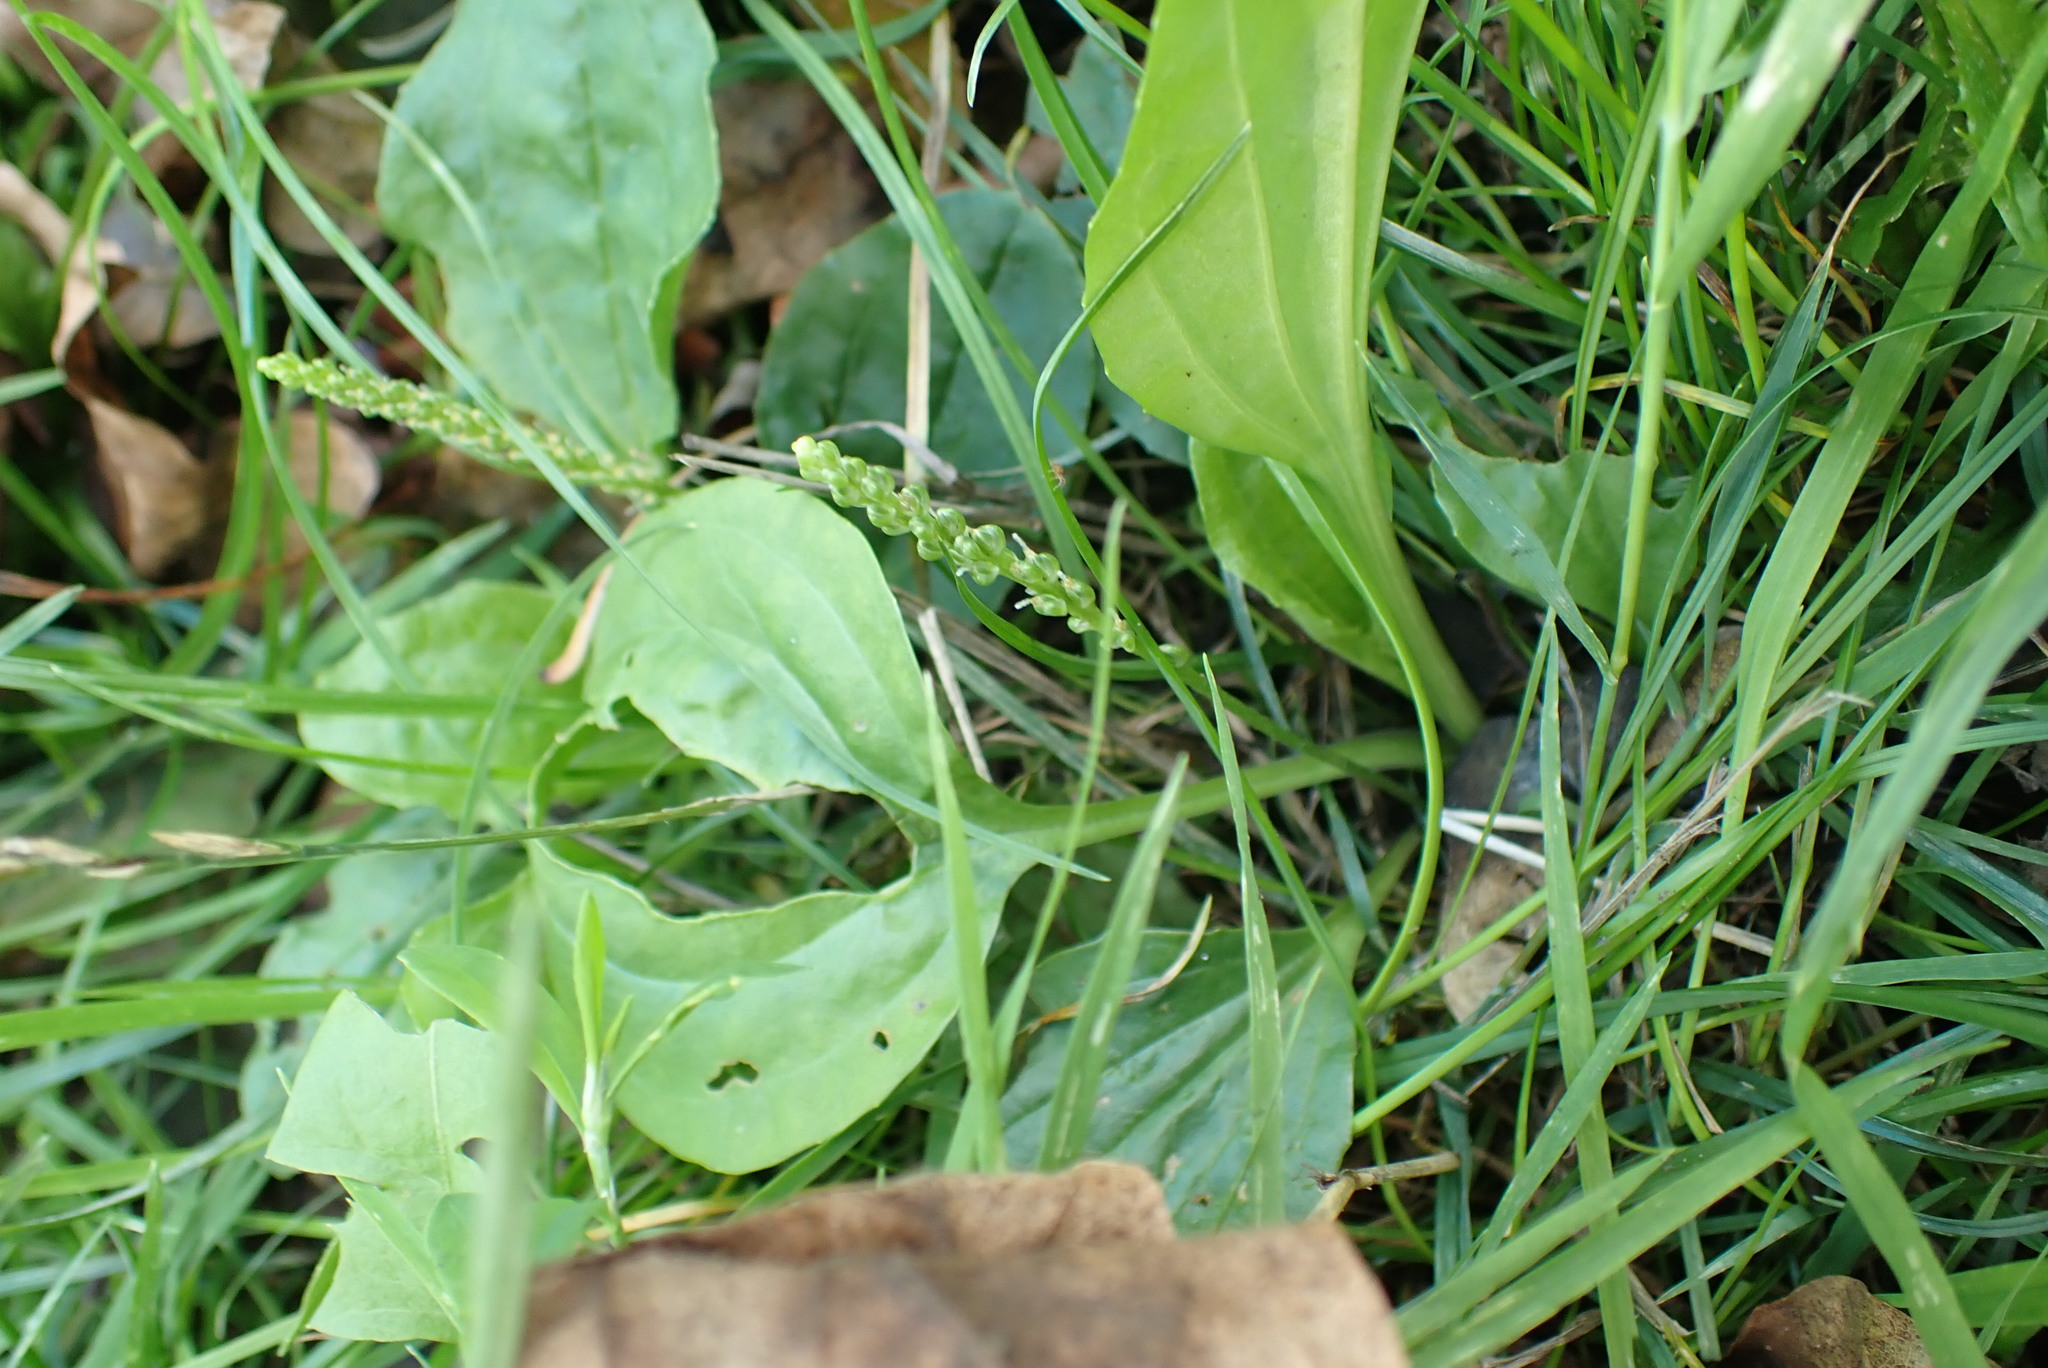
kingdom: Plantae
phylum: Tracheophyta
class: Magnoliopsida
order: Lamiales
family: Plantaginaceae
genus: Plantago
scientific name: Plantago major
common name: Common plantain
